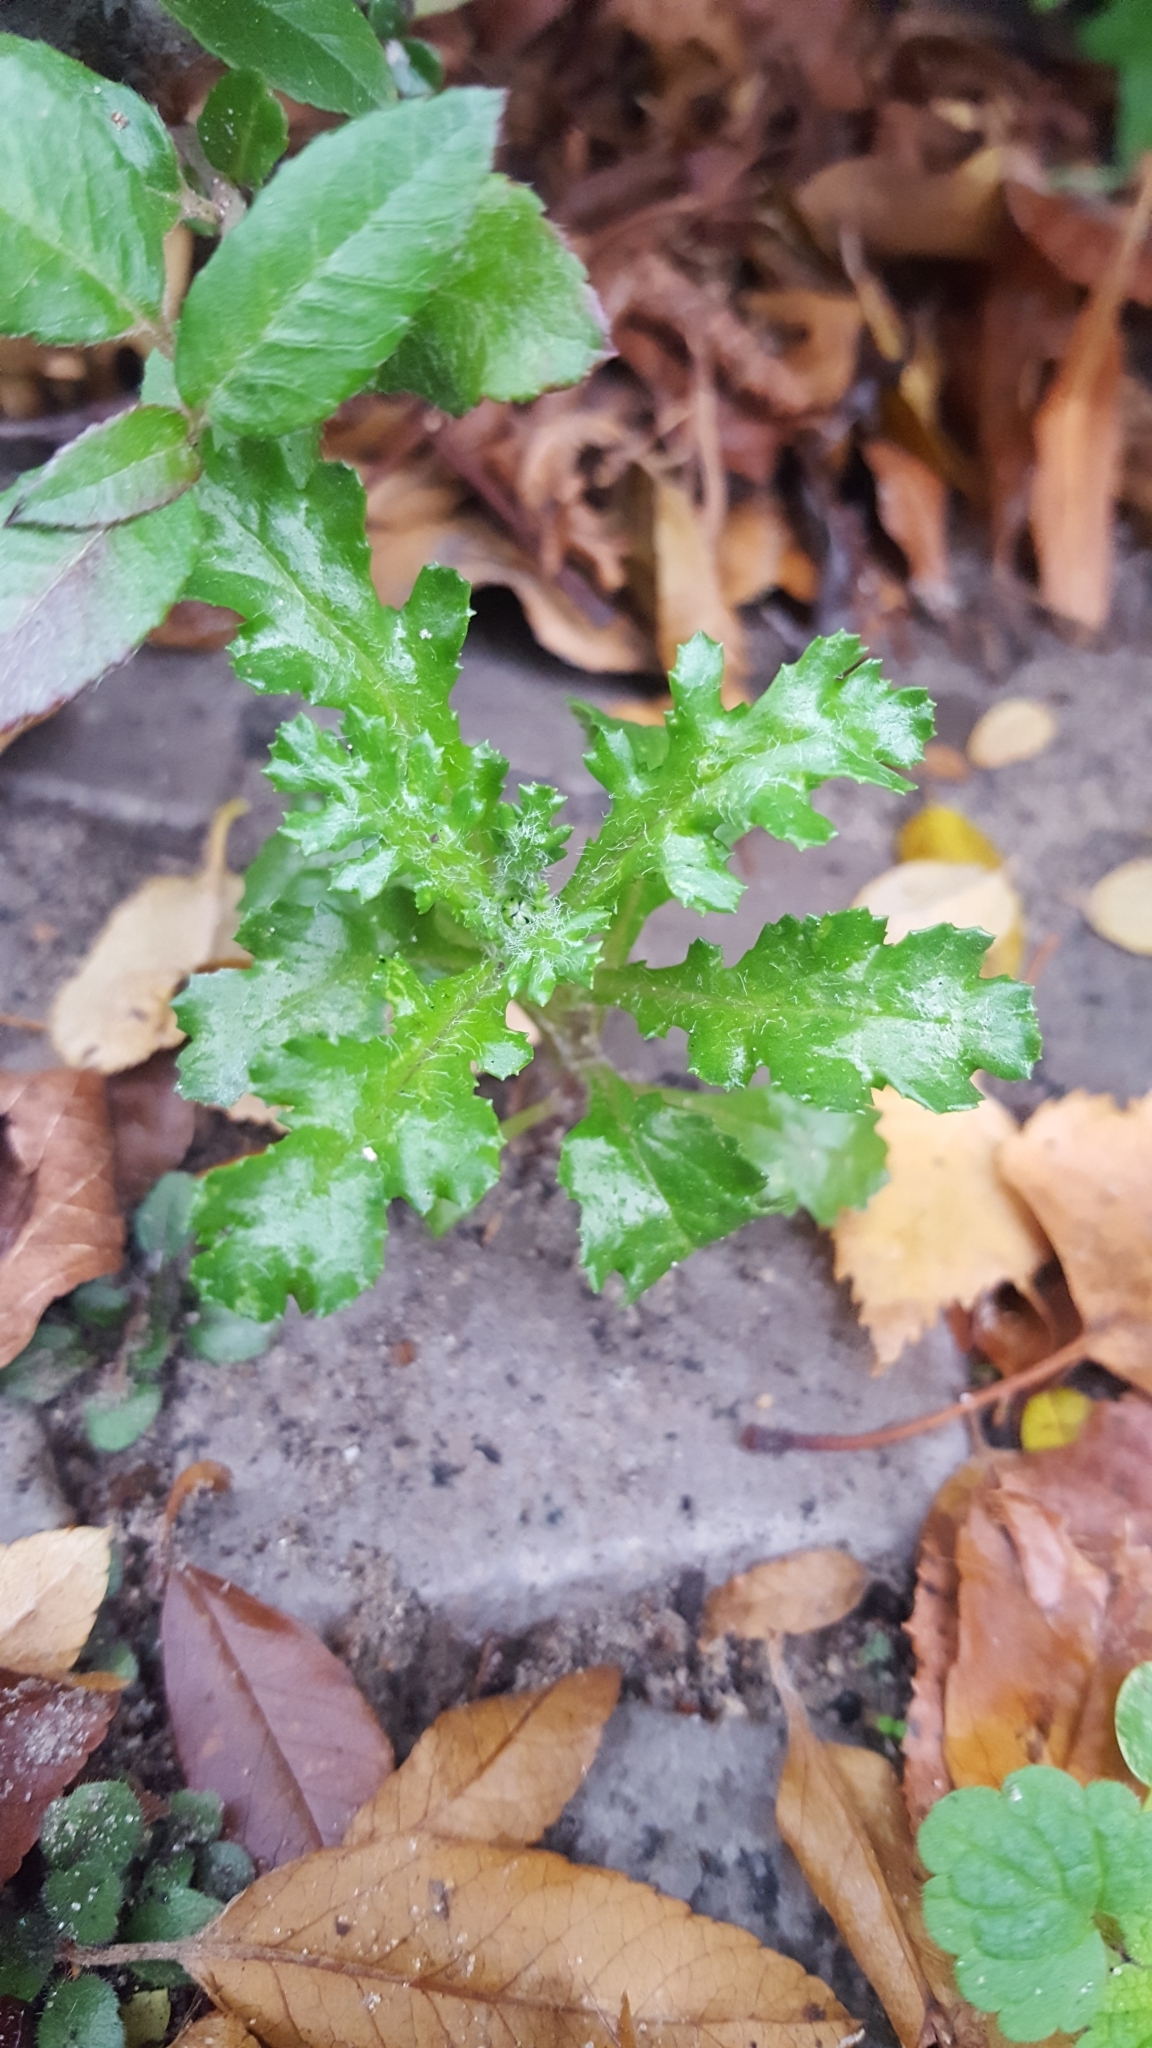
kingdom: Plantae
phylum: Tracheophyta
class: Magnoliopsida
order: Asterales
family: Asteraceae
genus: Senecio
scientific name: Senecio vulgaris
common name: Old-man-in-the-spring
